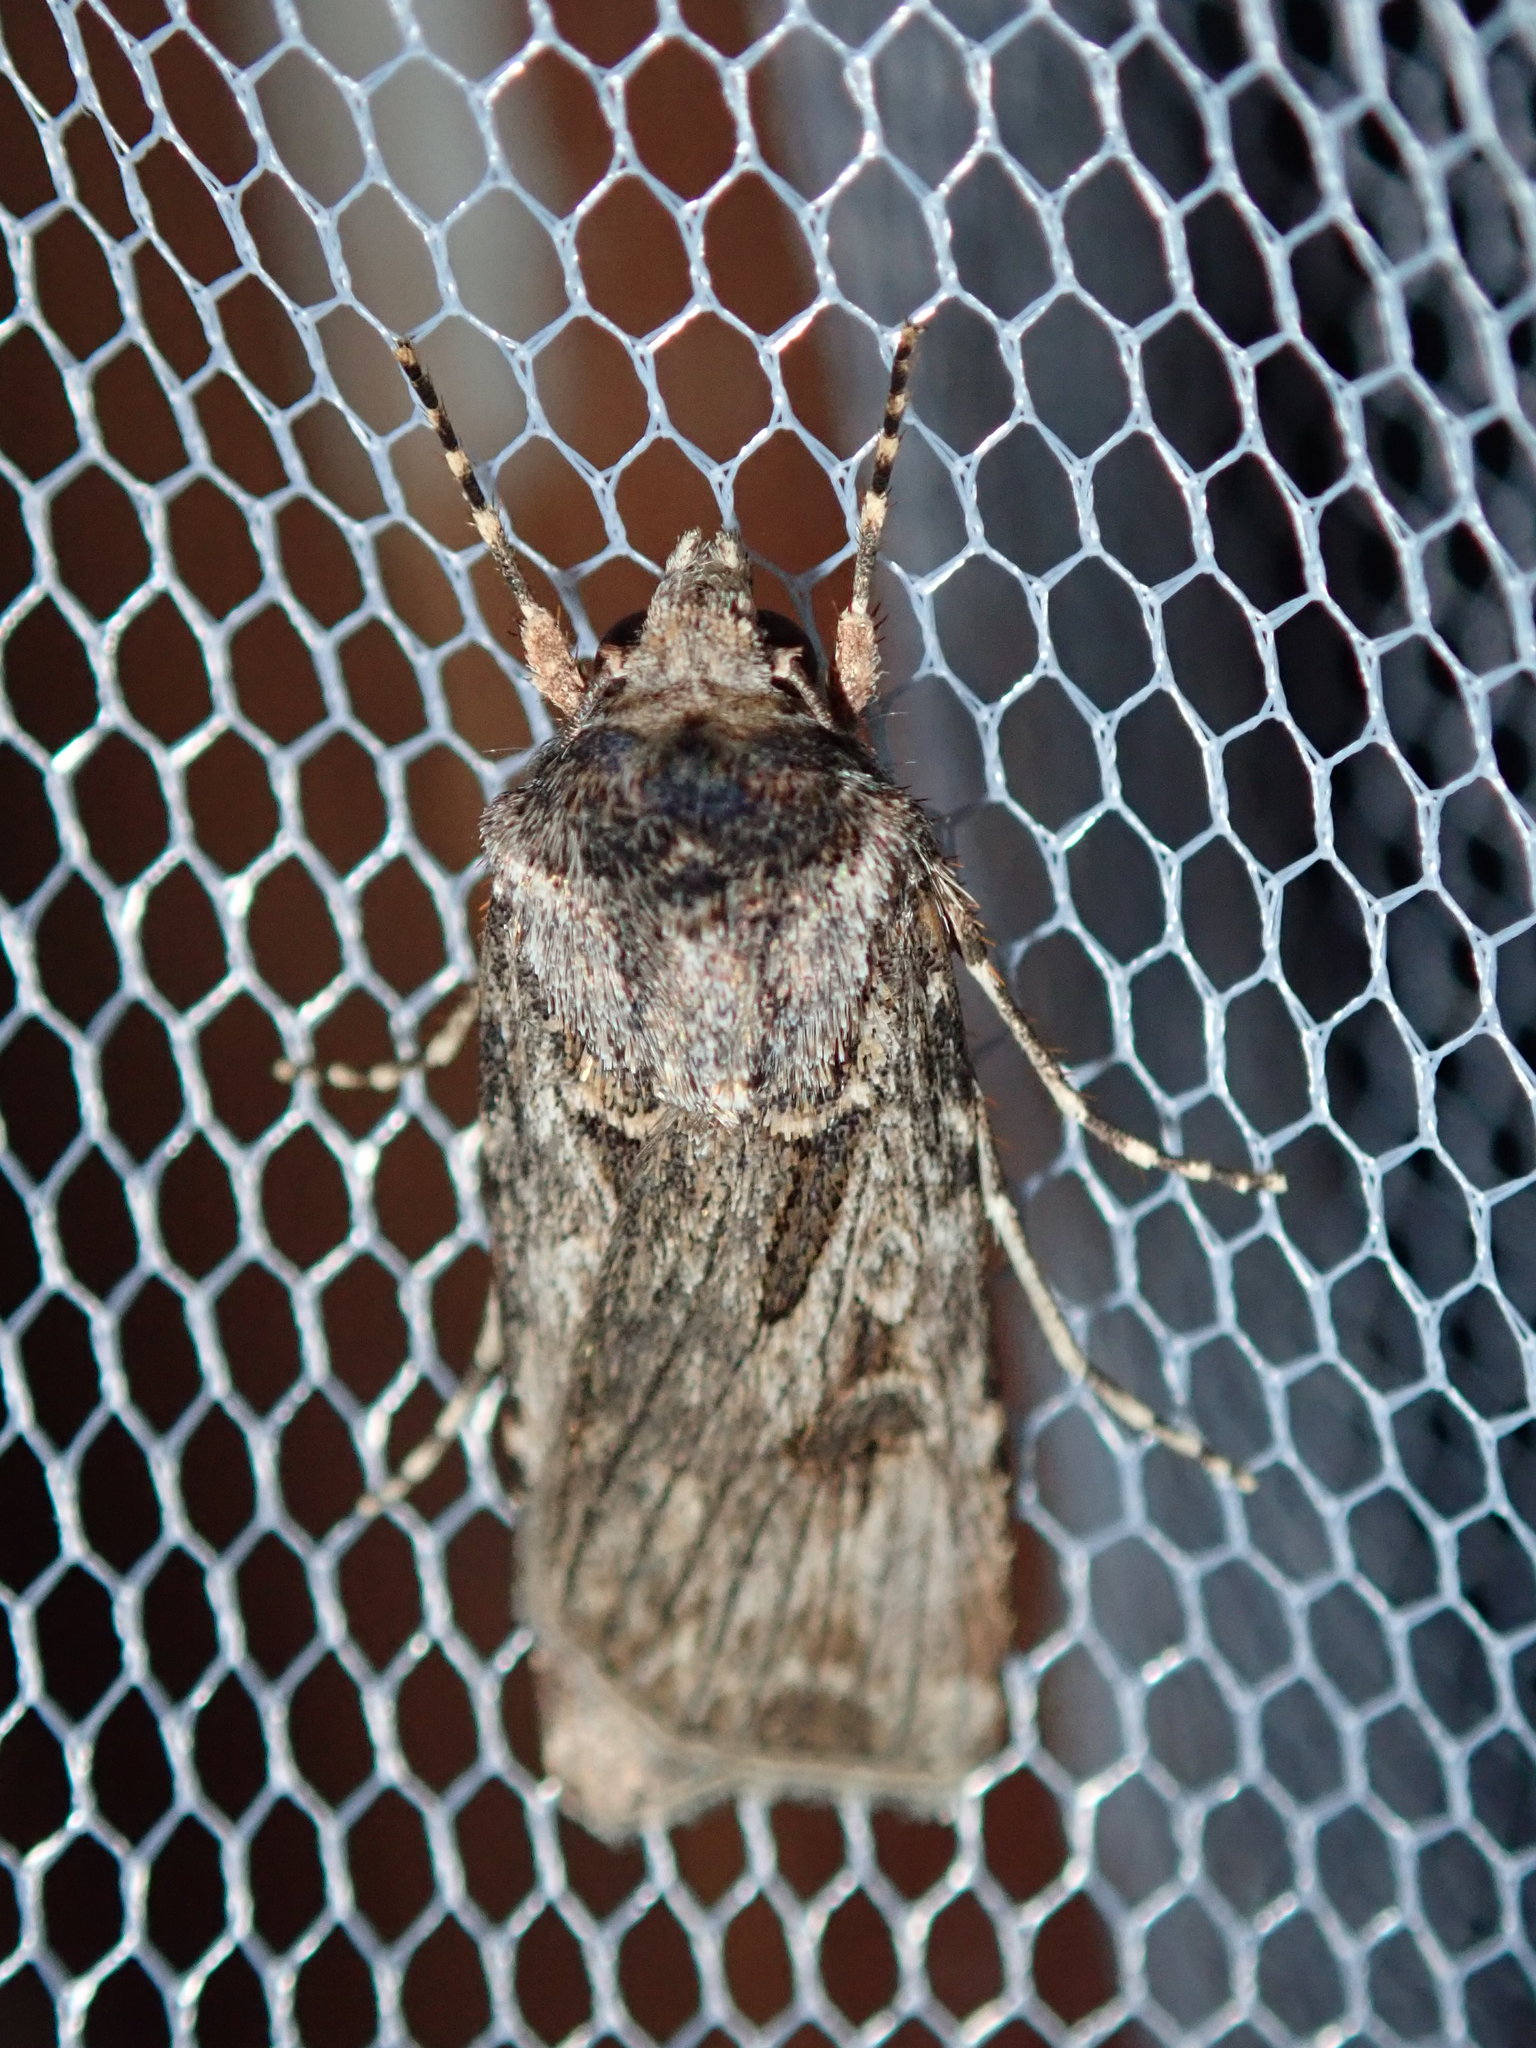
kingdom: Animalia
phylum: Arthropoda
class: Insecta
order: Lepidoptera
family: Noctuidae
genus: Agrotis
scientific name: Agrotis munda
